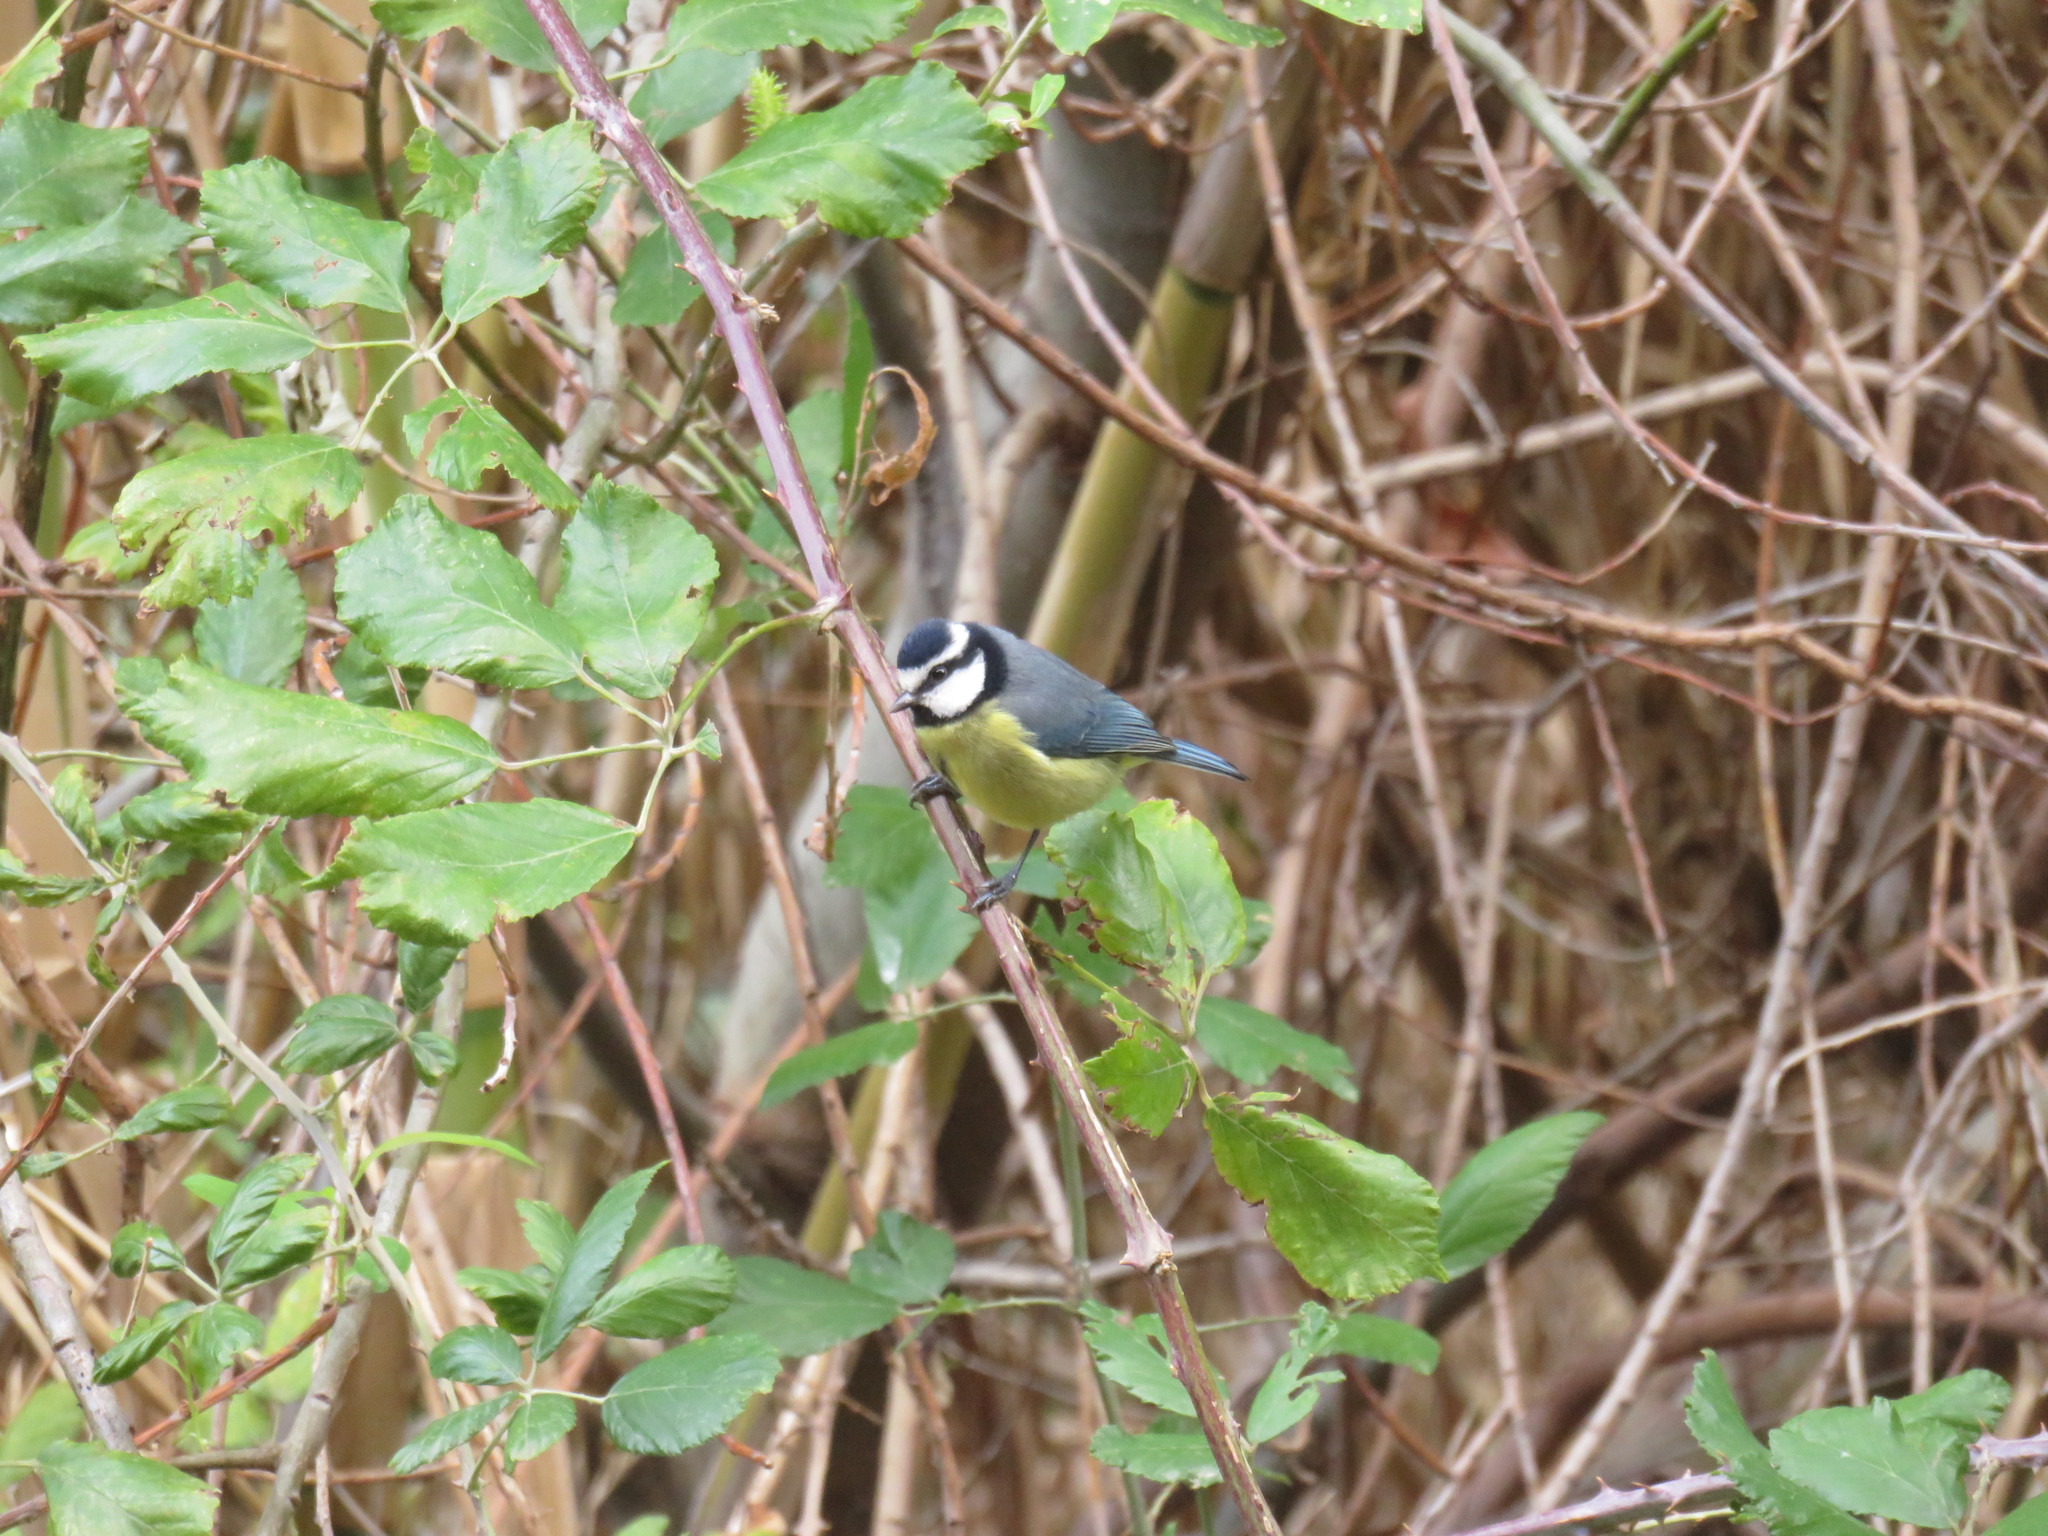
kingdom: Animalia
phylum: Chordata
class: Aves
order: Passeriformes
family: Paridae
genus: Cyanistes
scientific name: Cyanistes teneriffae
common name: African blue tit
